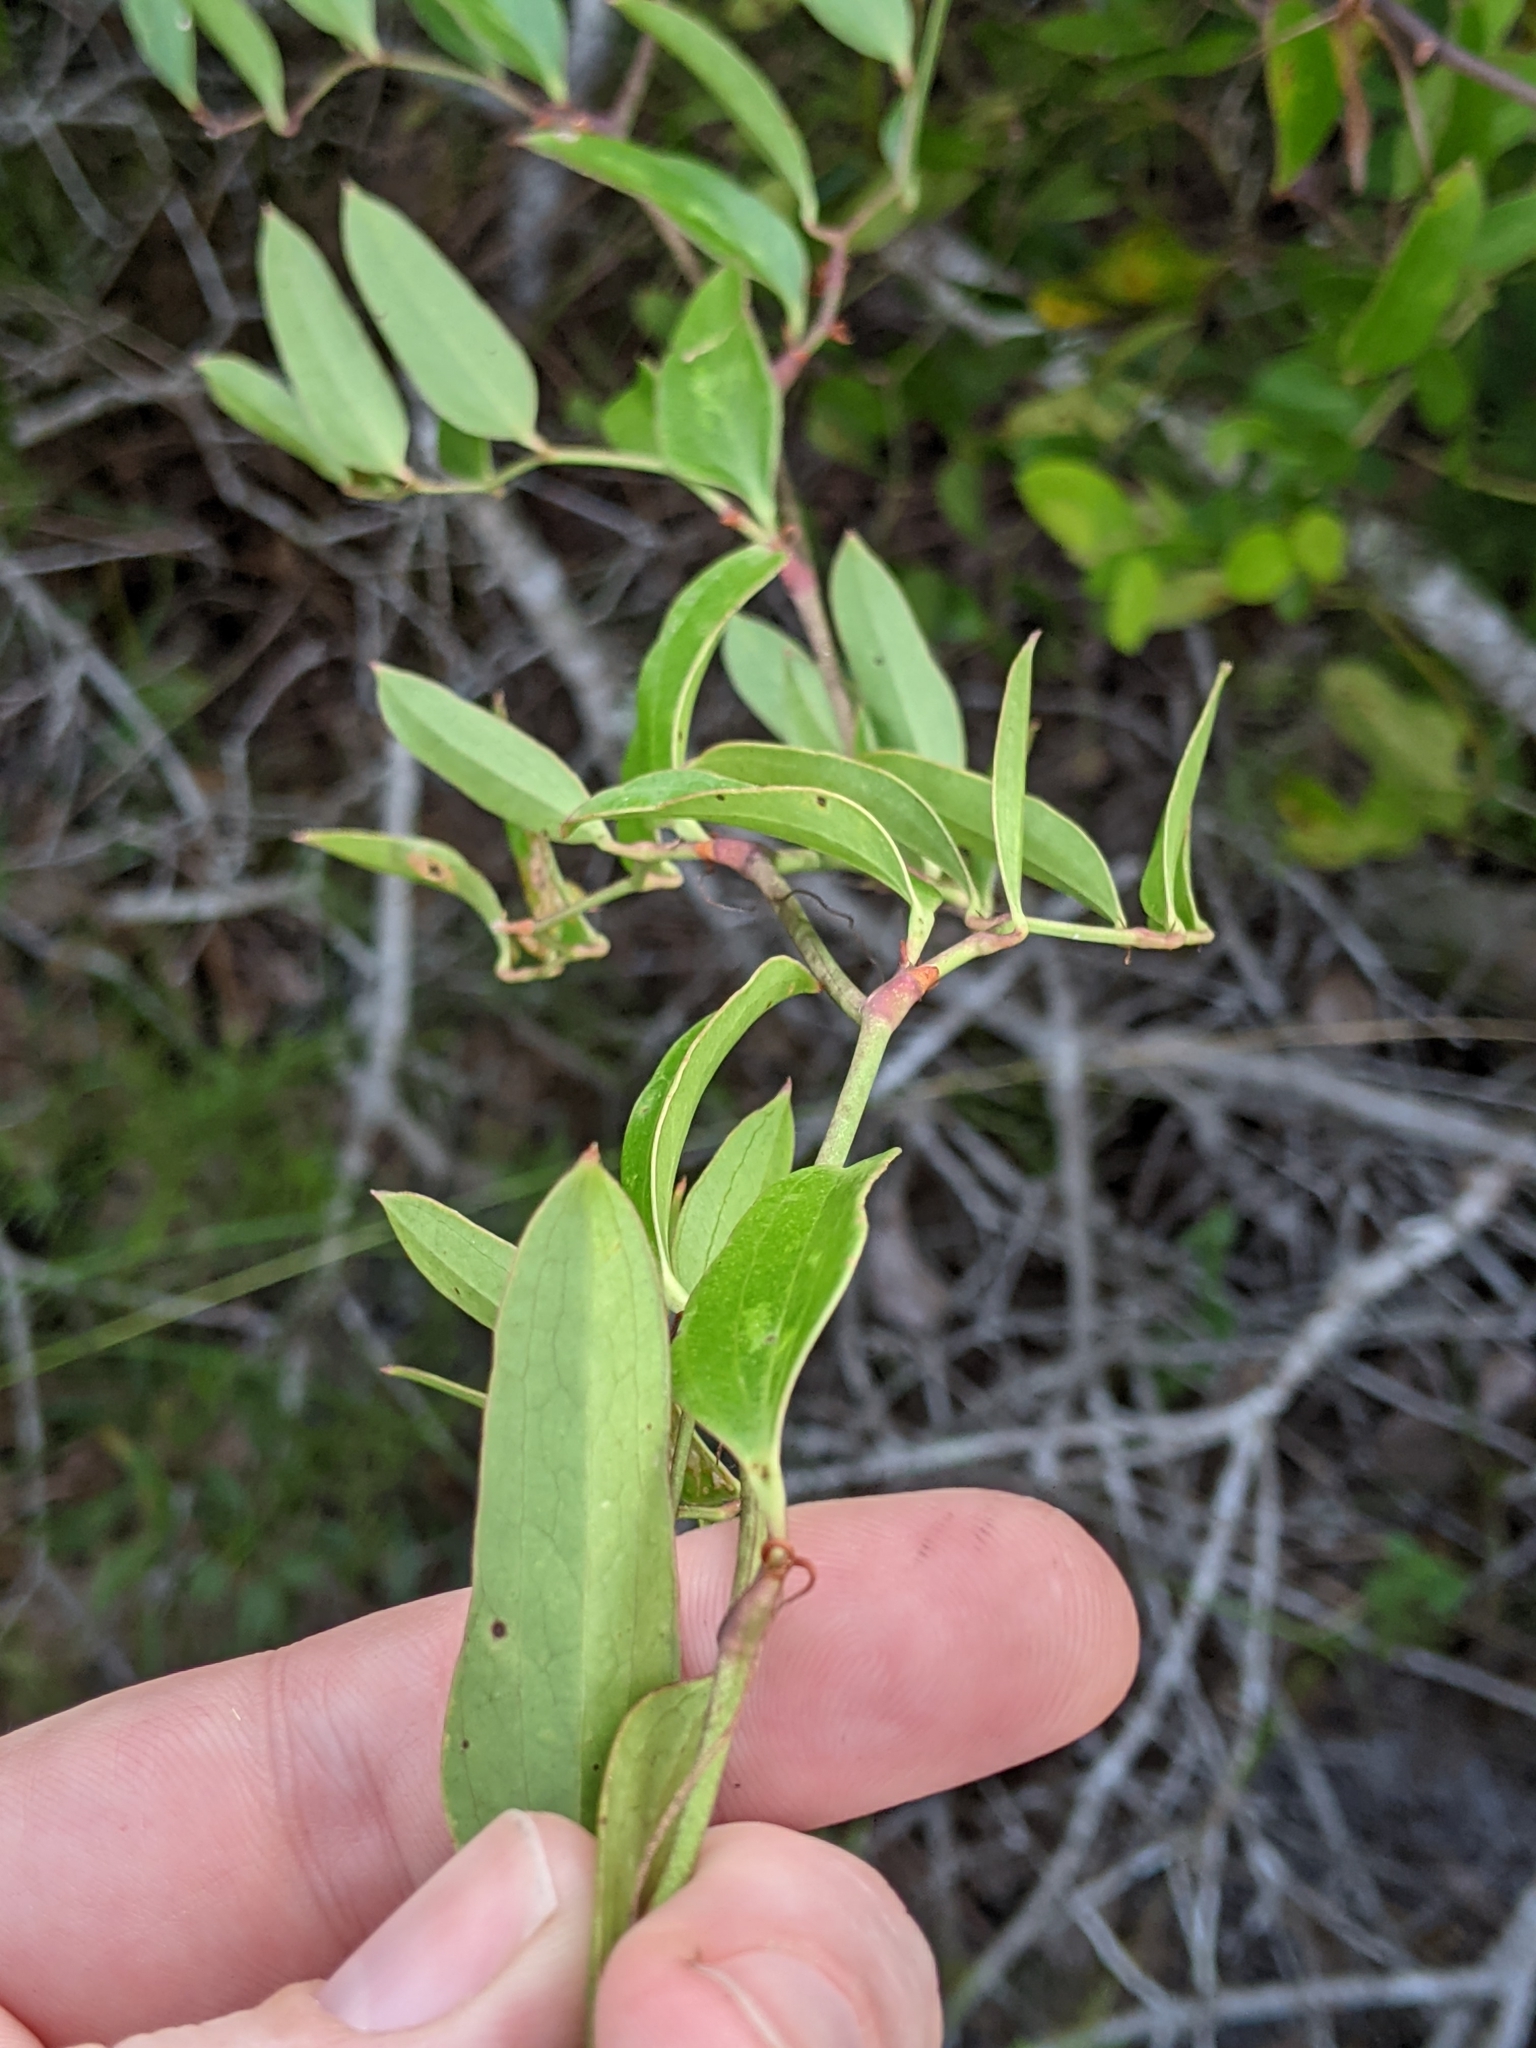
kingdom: Plantae
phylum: Tracheophyta
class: Liliopsida
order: Liliales
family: Smilacaceae
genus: Smilax
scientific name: Smilax auriculata
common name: Wild bamboo
